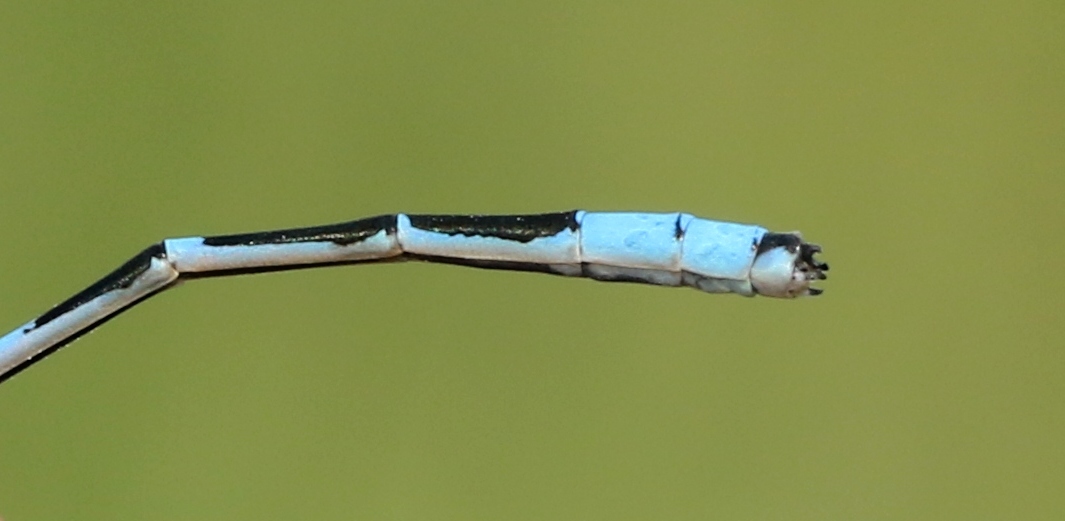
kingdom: Animalia
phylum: Arthropoda
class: Insecta
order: Odonata
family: Coenagrionidae
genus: Enallagma
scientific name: Enallagma ebrium
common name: Marsh bluet
